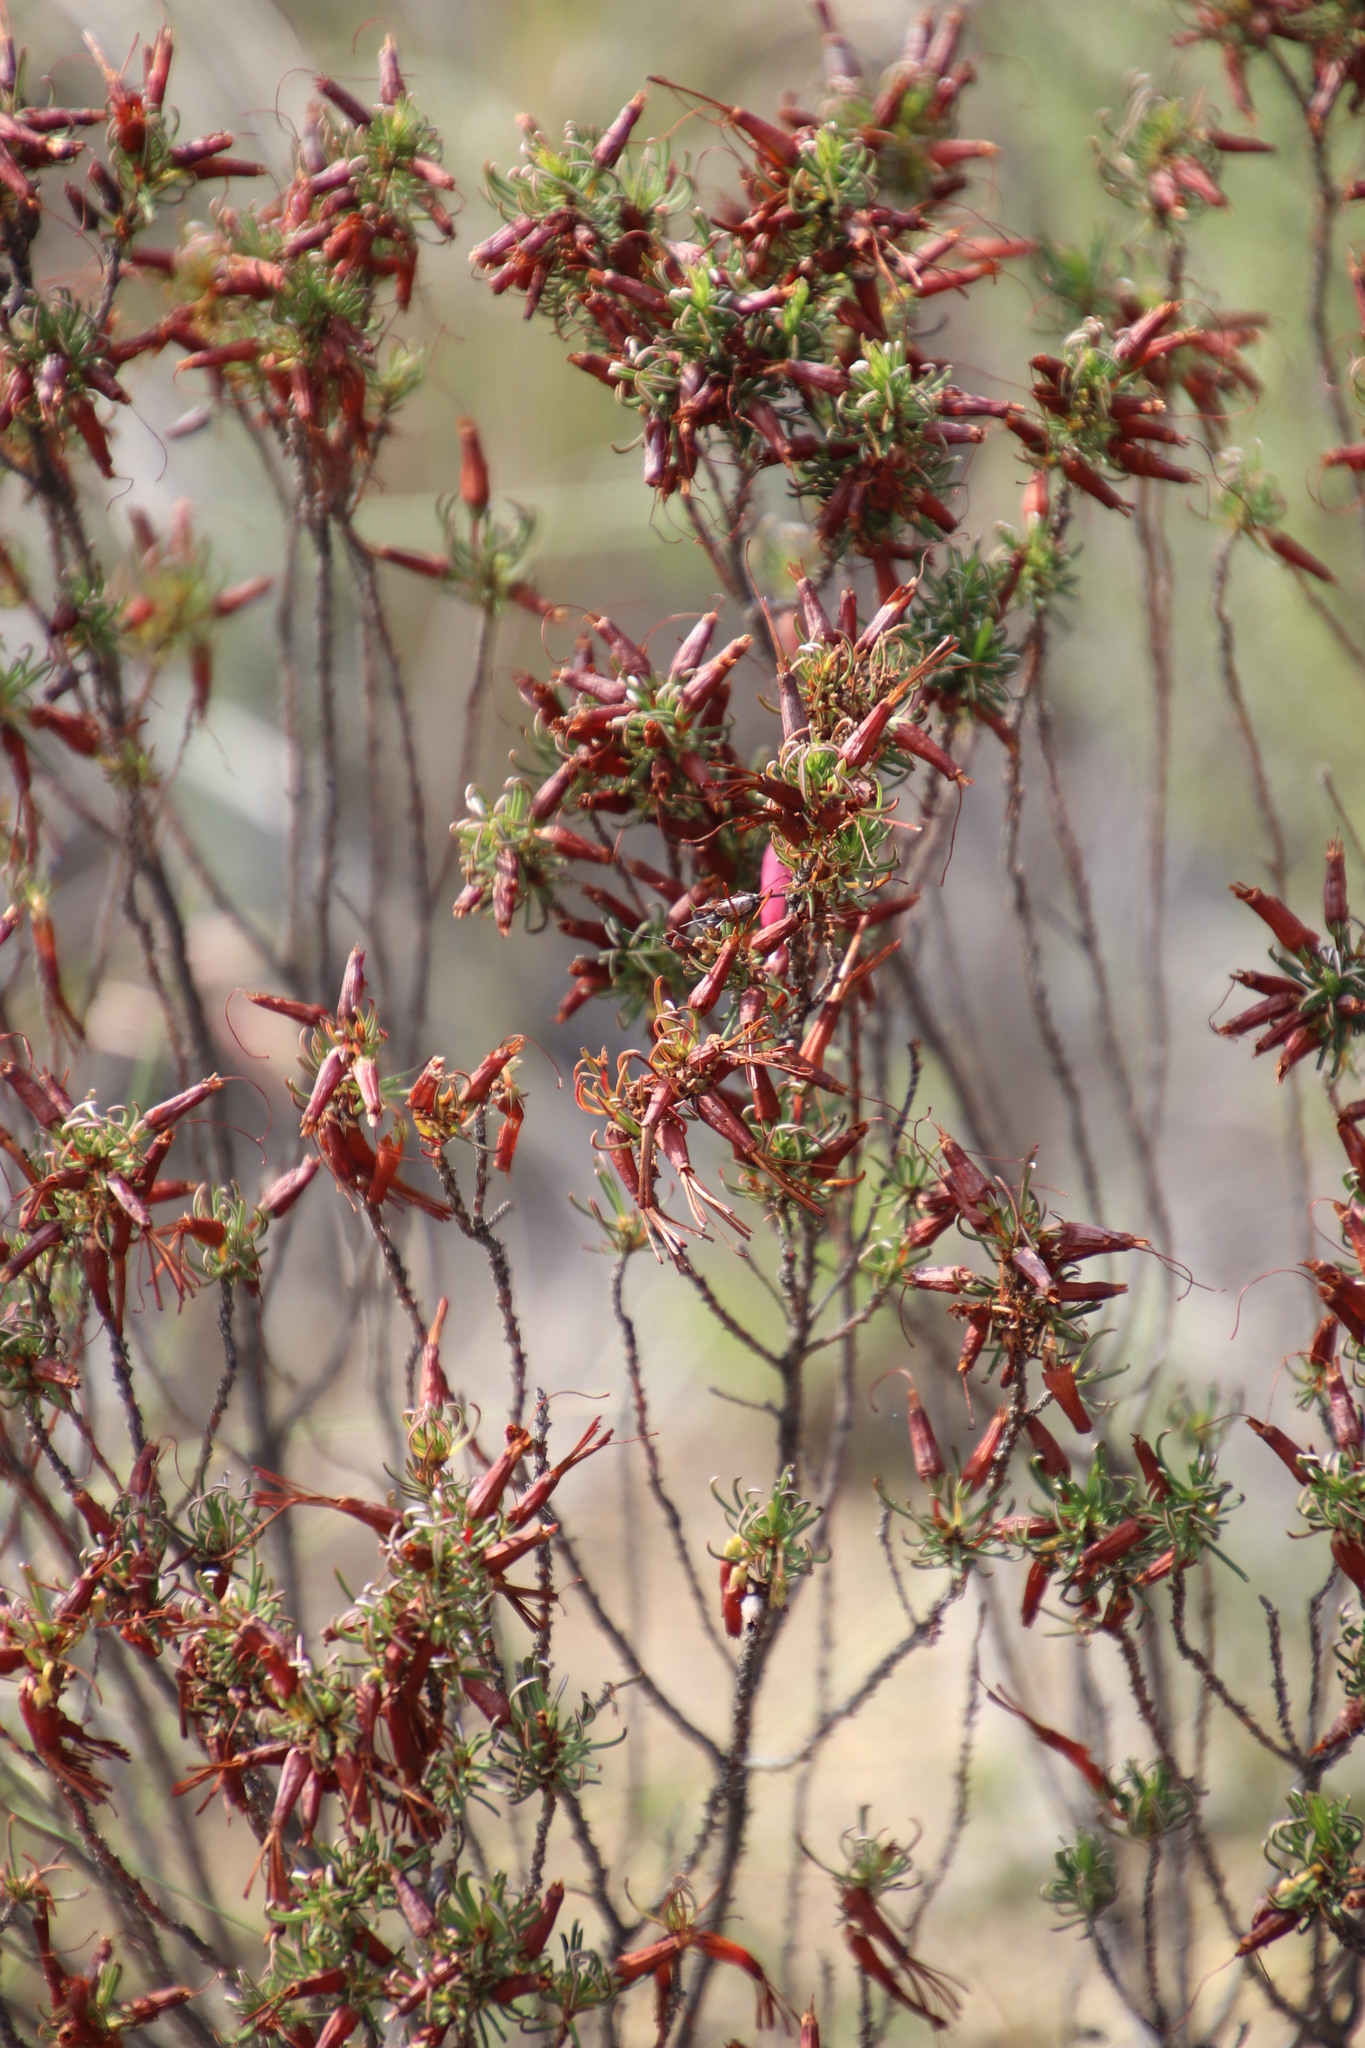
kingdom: Plantae
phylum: Tracheophyta
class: Magnoliopsida
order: Ericales
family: Ericaceae
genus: Erica
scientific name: Erica plukenetii
